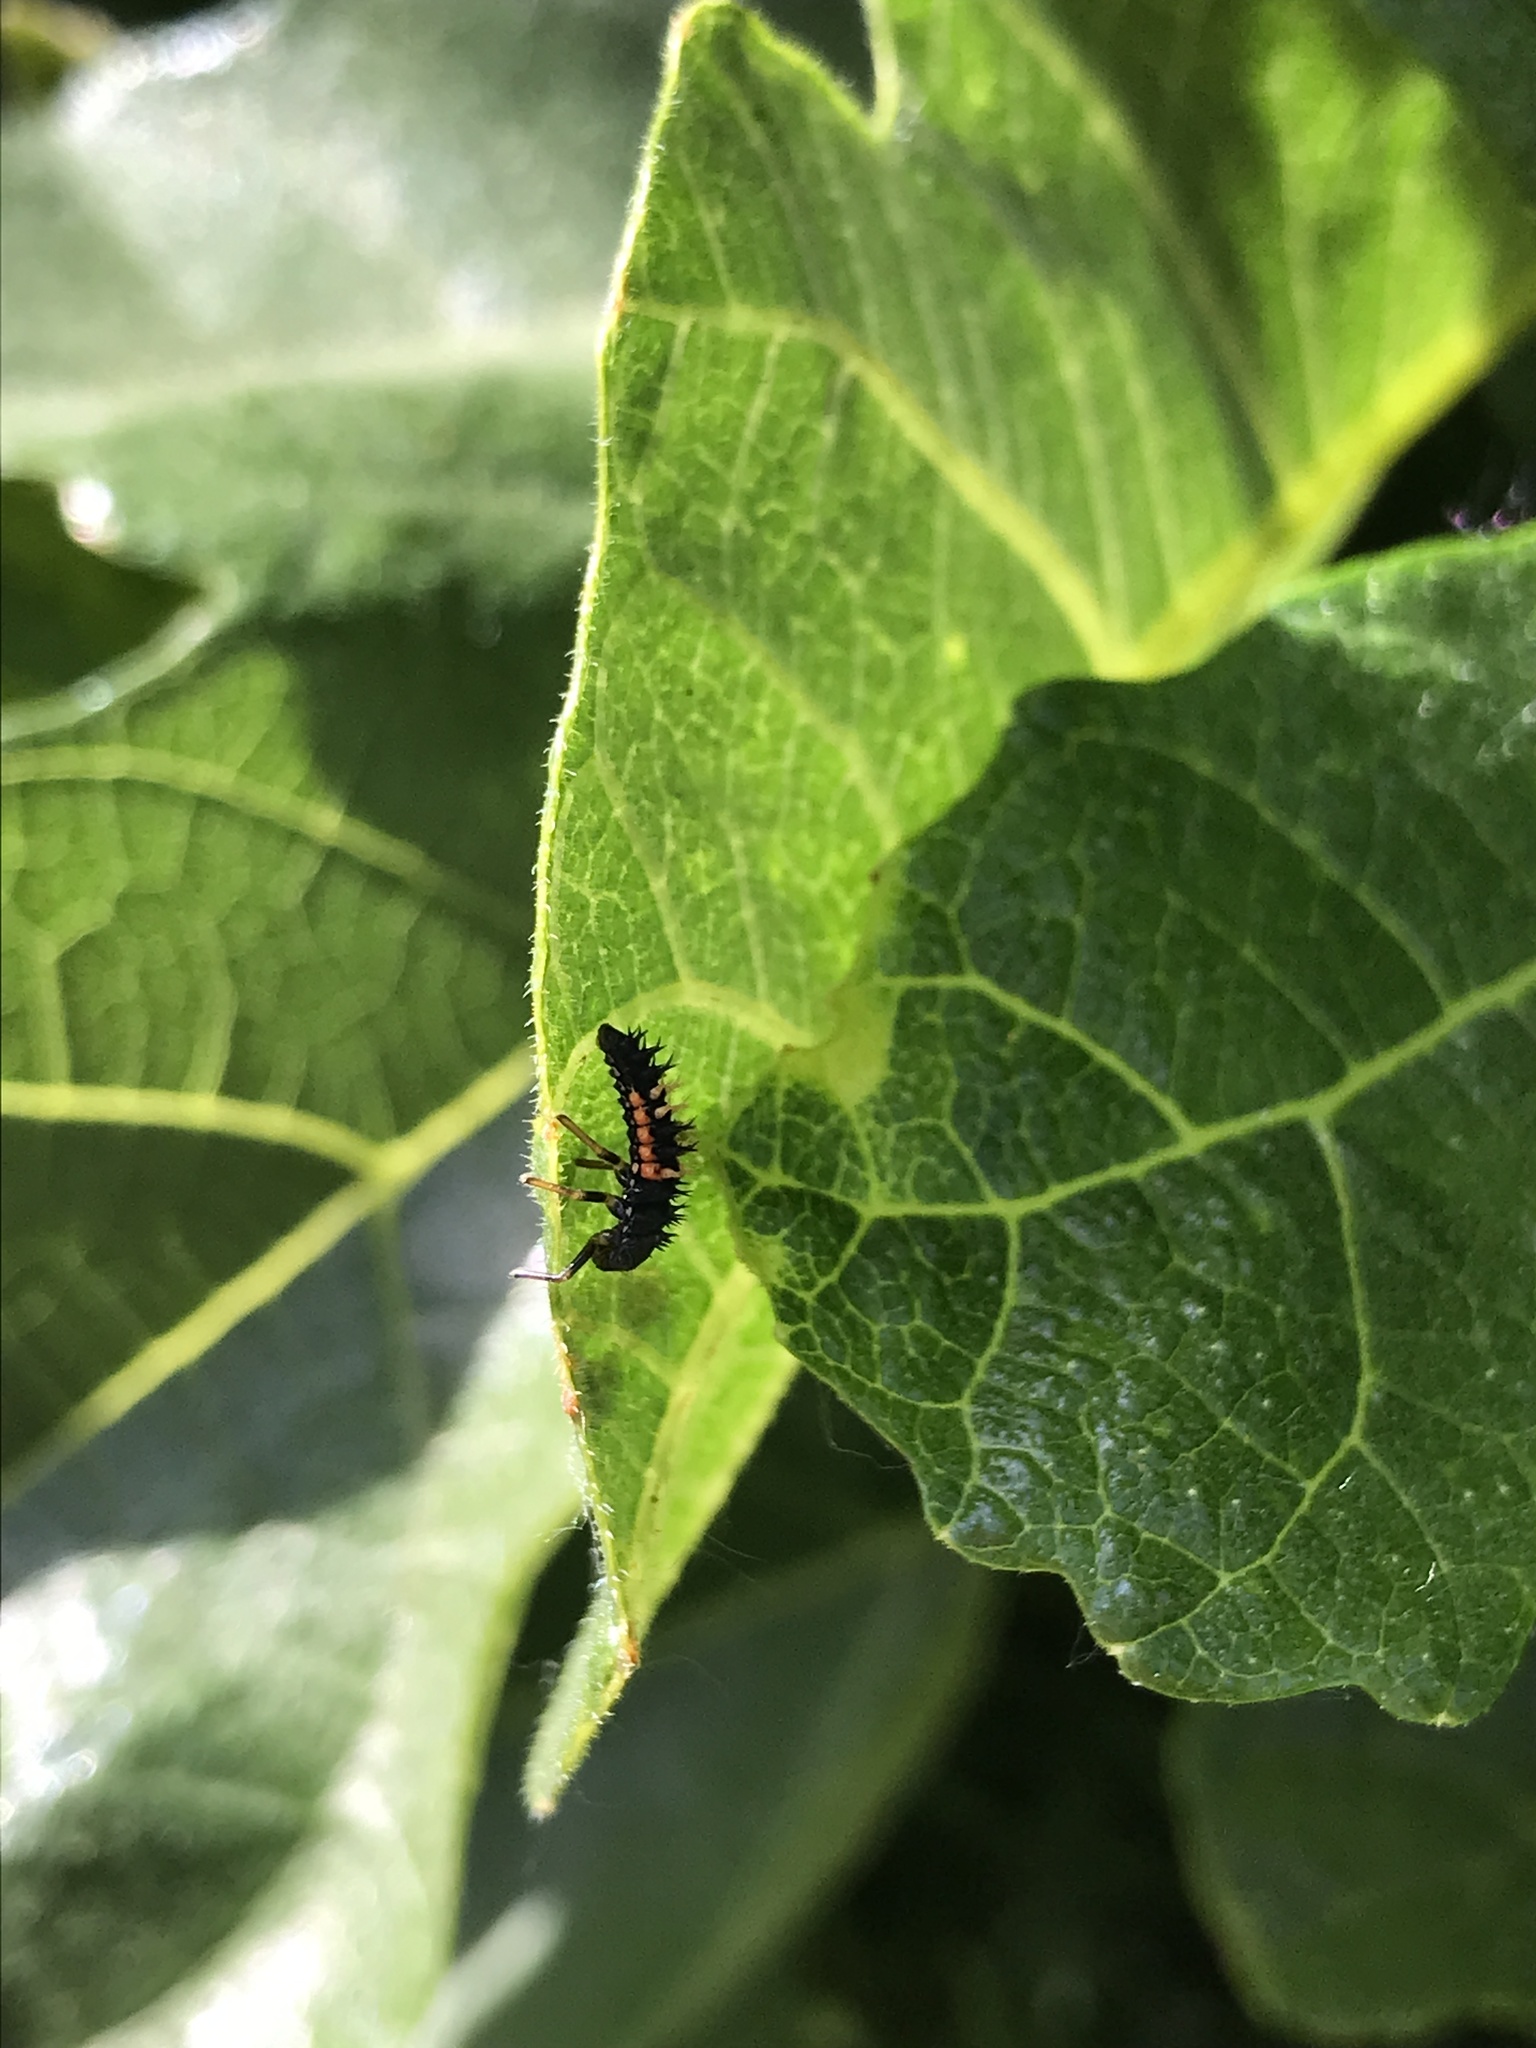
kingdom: Animalia
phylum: Arthropoda
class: Insecta
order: Coleoptera
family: Coccinellidae
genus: Harmonia
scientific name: Harmonia axyridis
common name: Harlequin ladybird
